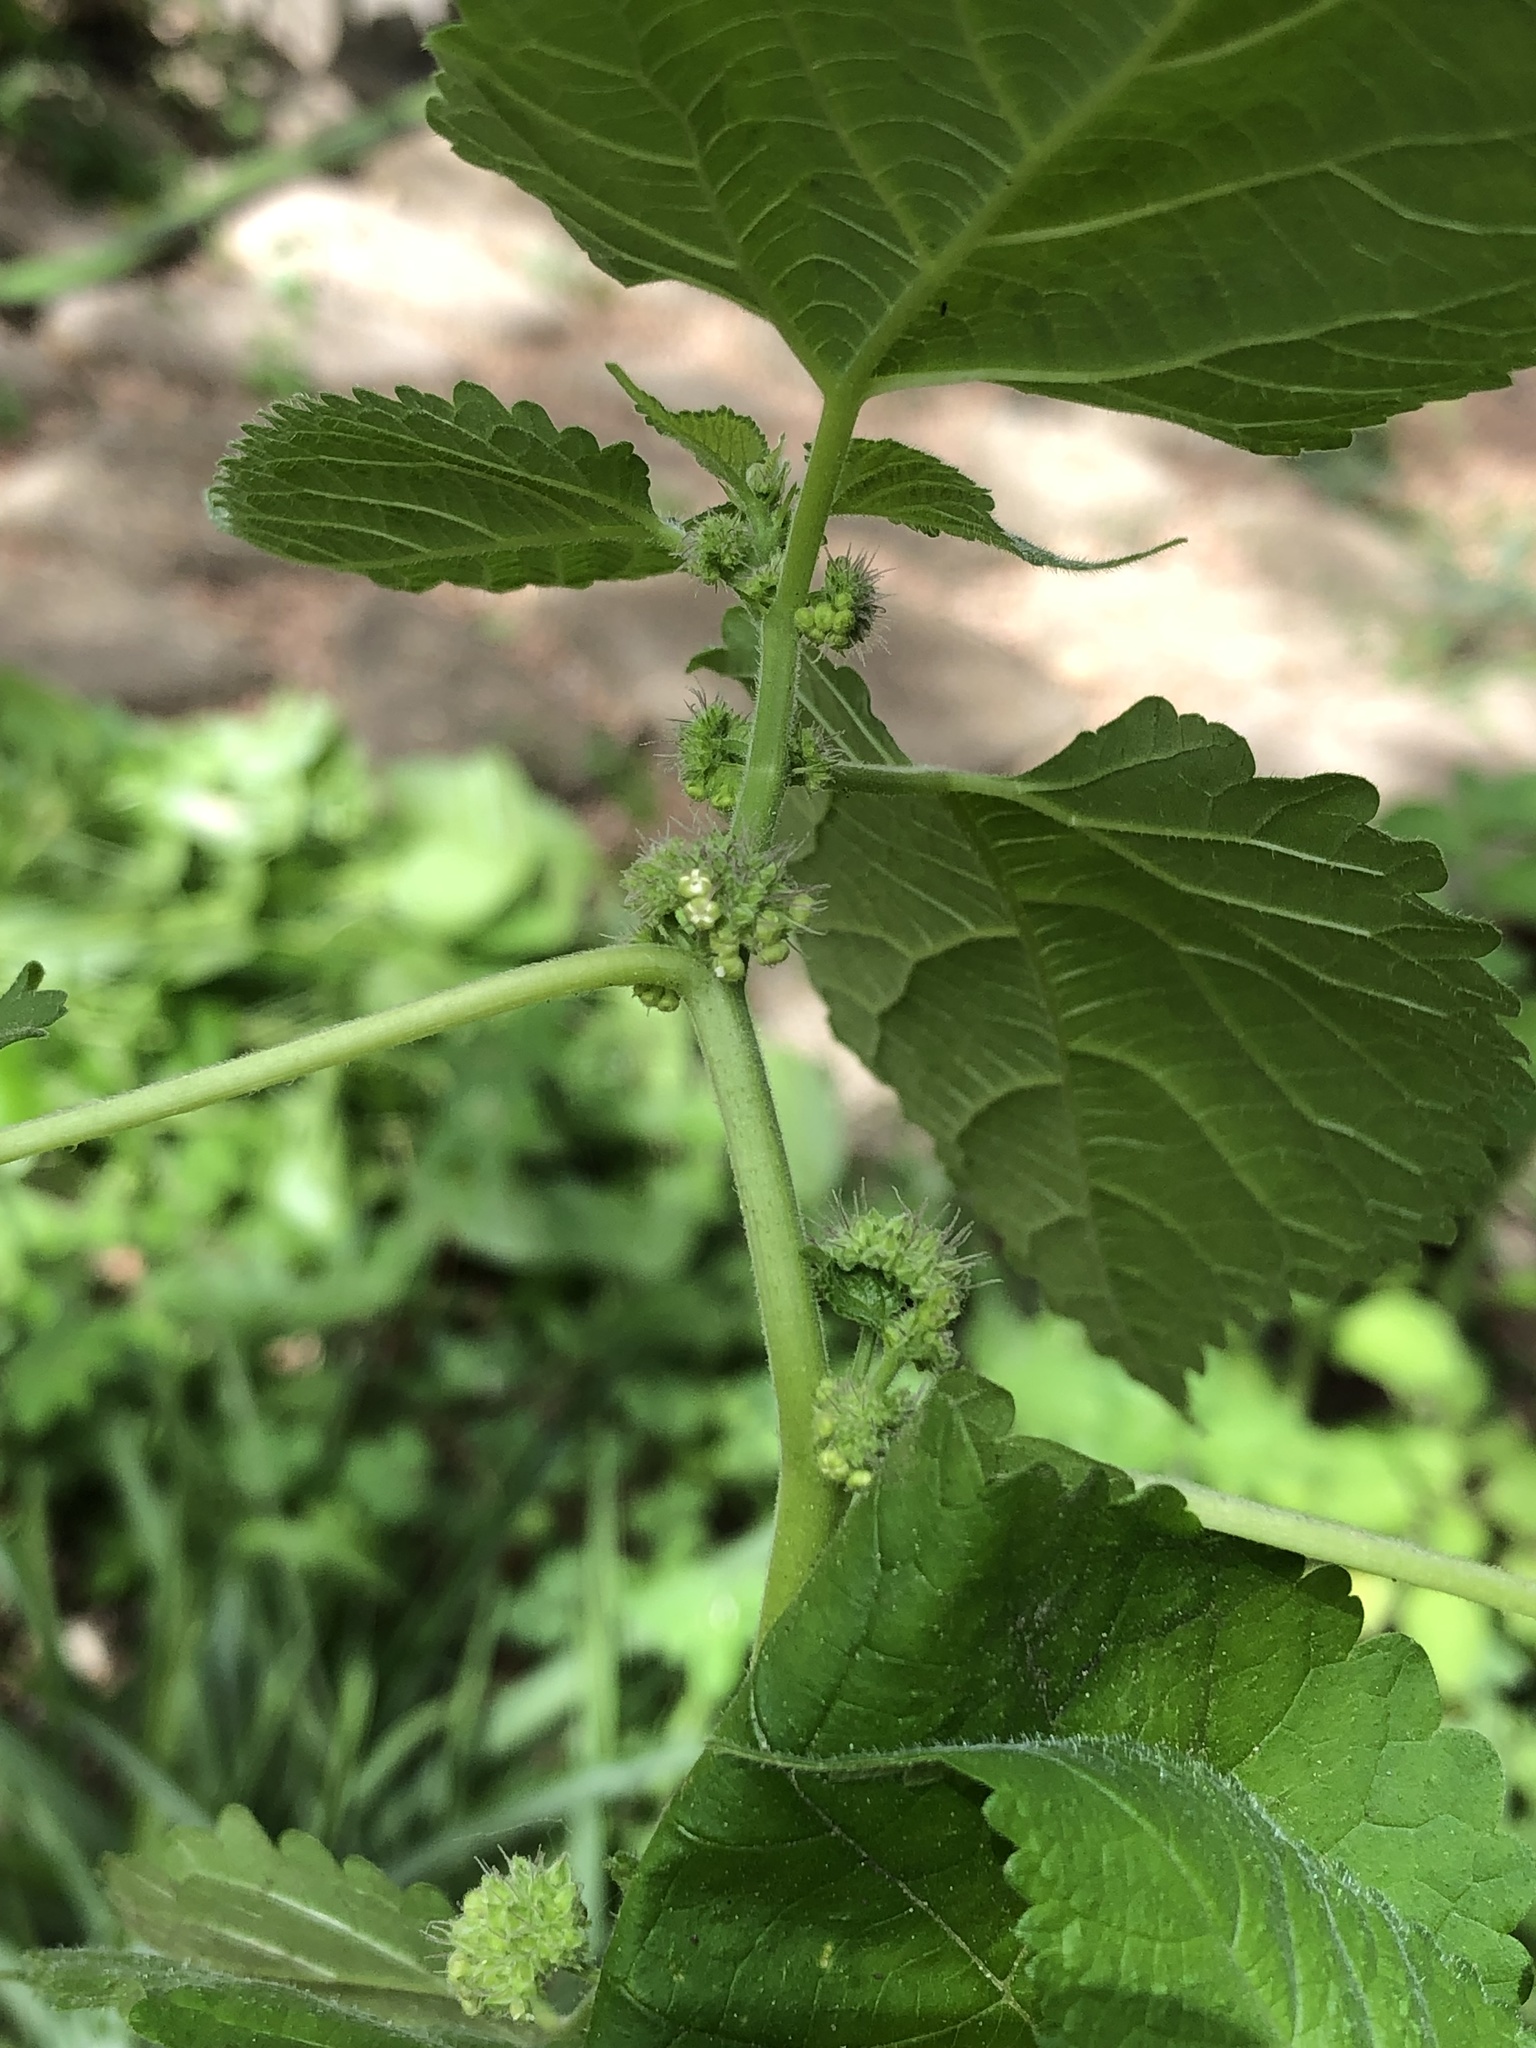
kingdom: Plantae
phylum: Tracheophyta
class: Magnoliopsida
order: Rosales
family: Moraceae
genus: Fatoua
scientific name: Fatoua villosa
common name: Hairy crabweed
